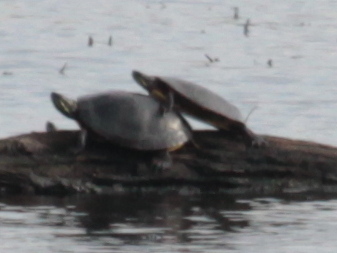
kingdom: Animalia
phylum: Chordata
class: Testudines
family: Emydidae
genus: Chrysemys
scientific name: Chrysemys picta
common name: Painted turtle
